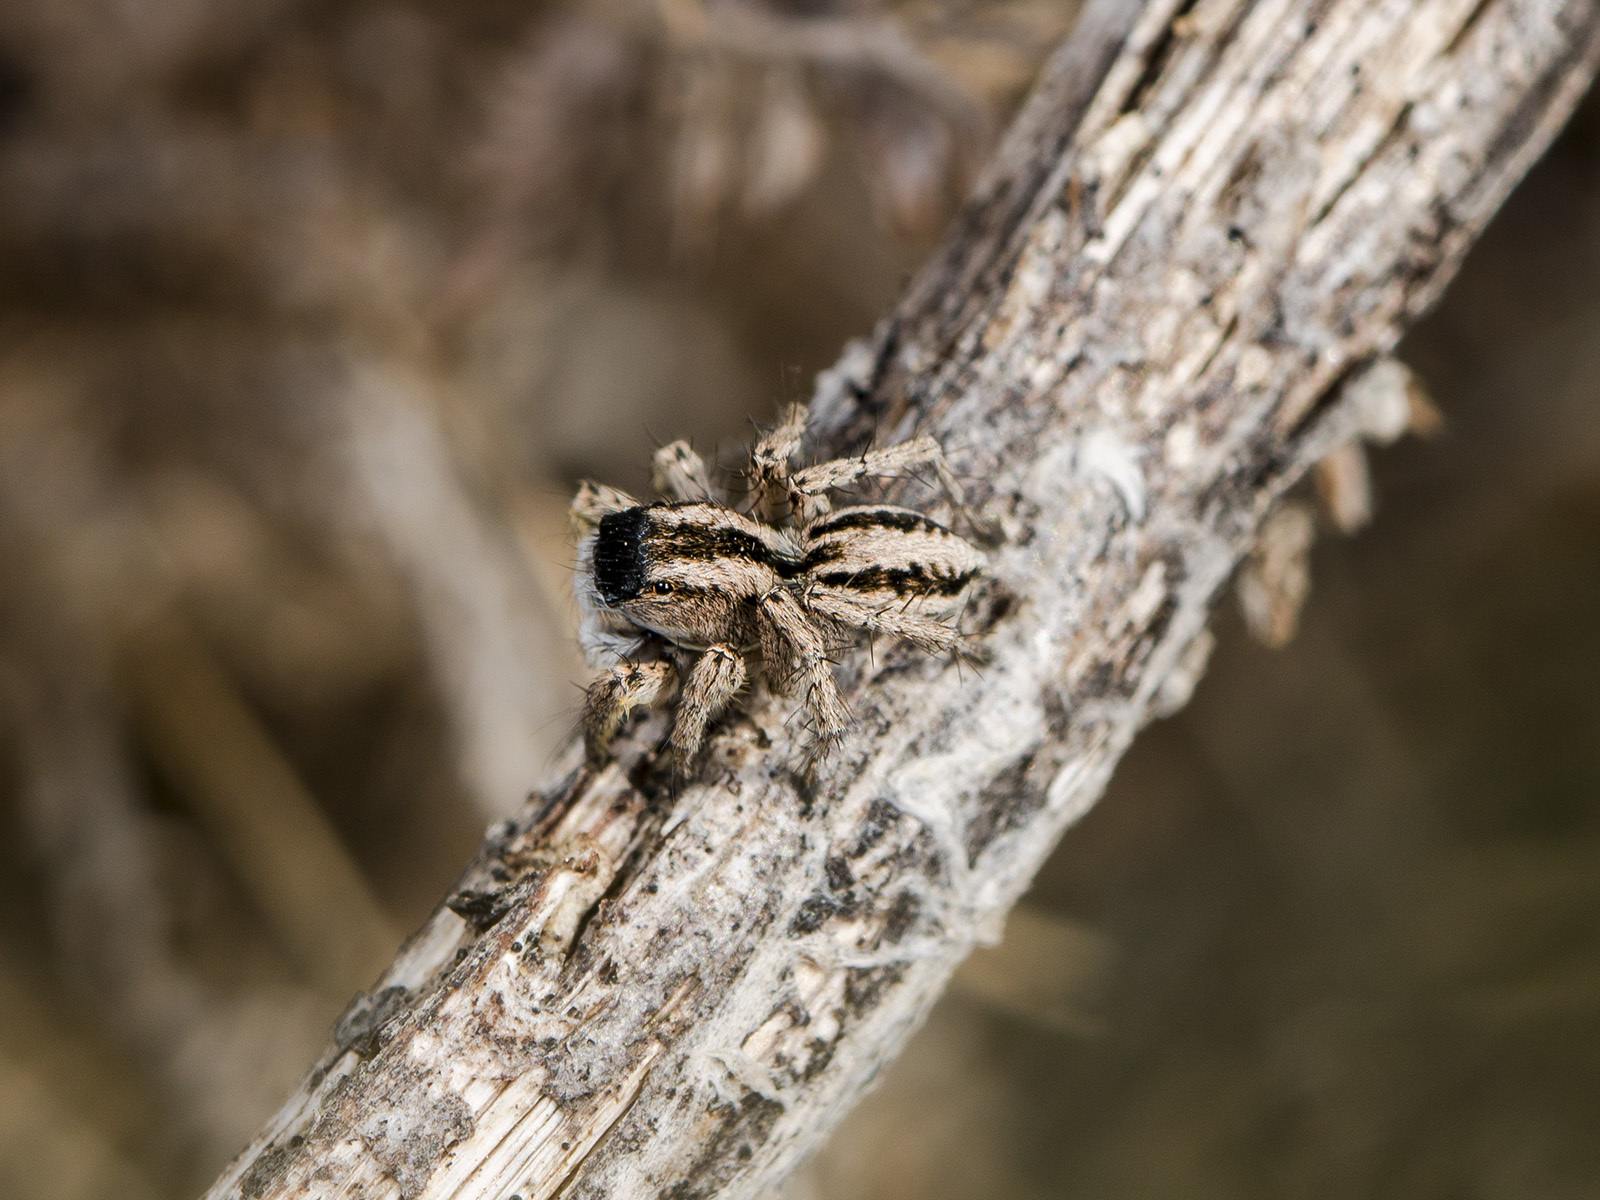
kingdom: Animalia
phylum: Arthropoda
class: Arachnida
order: Araneae
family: Salticidae
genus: Aelurillus
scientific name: Aelurillus m-nigrum
